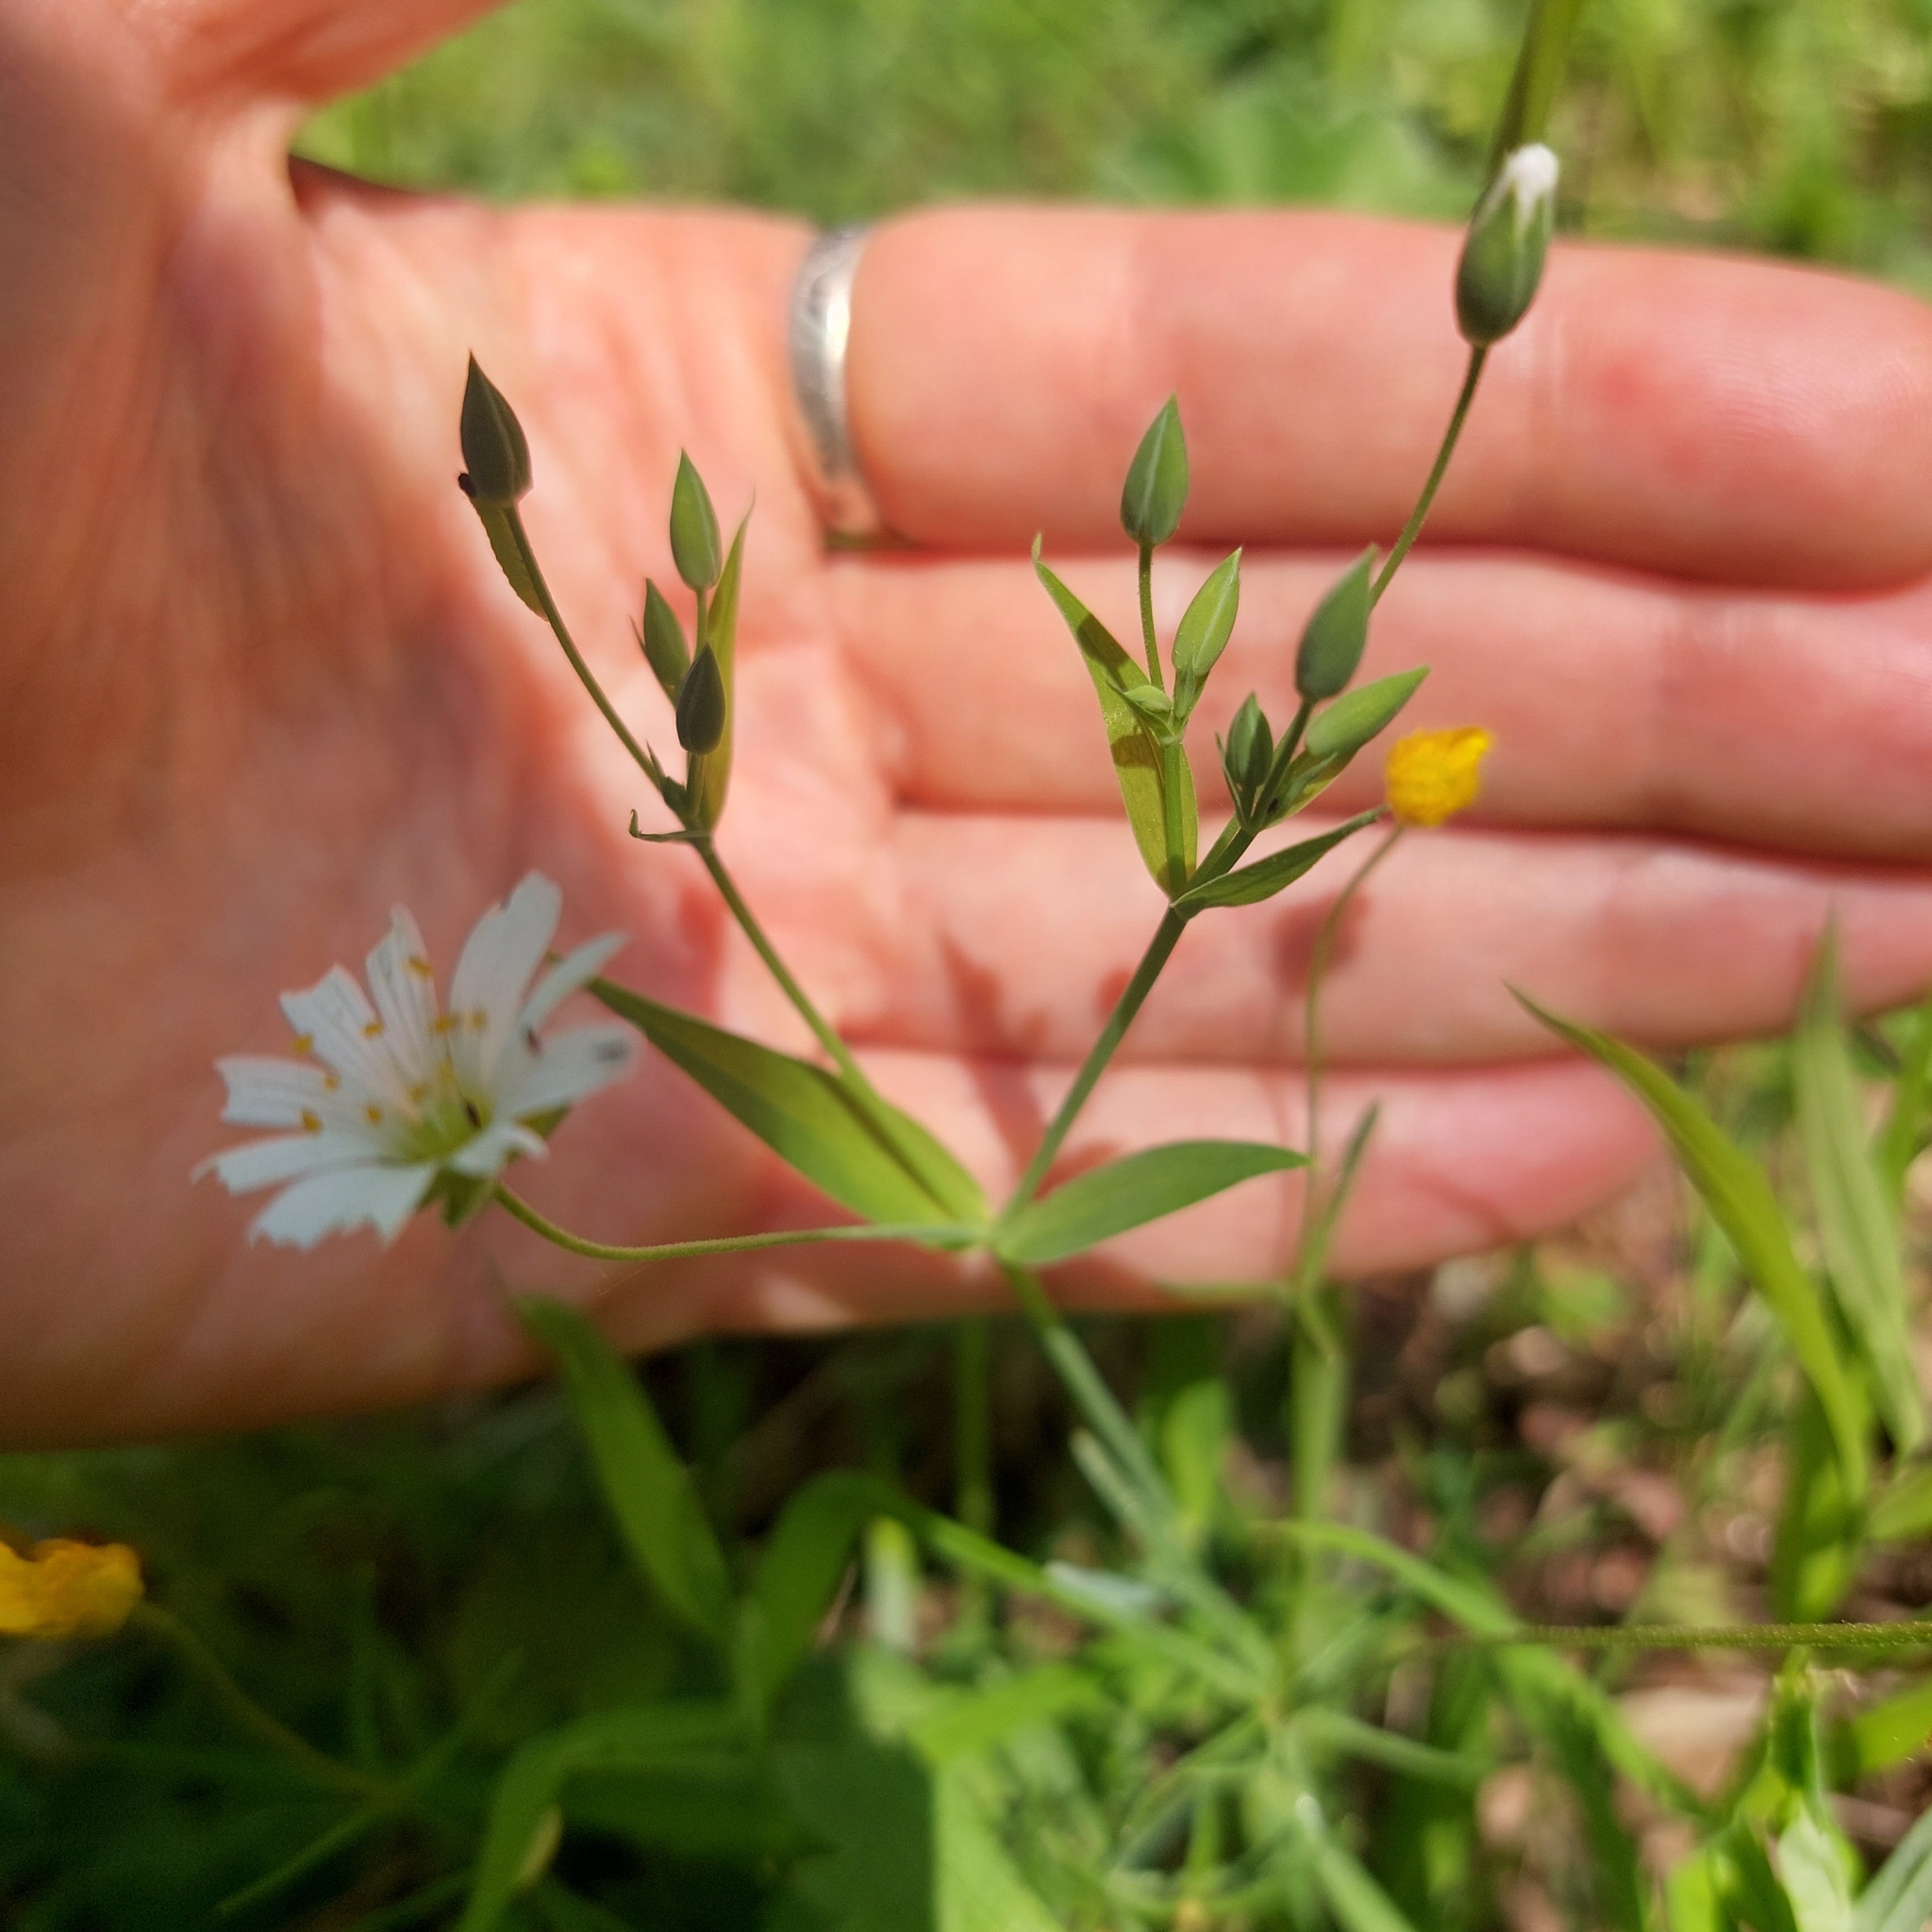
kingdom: Plantae
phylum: Tracheophyta
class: Magnoliopsida
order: Caryophyllales
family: Caryophyllaceae
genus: Rabelera
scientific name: Rabelera holostea
